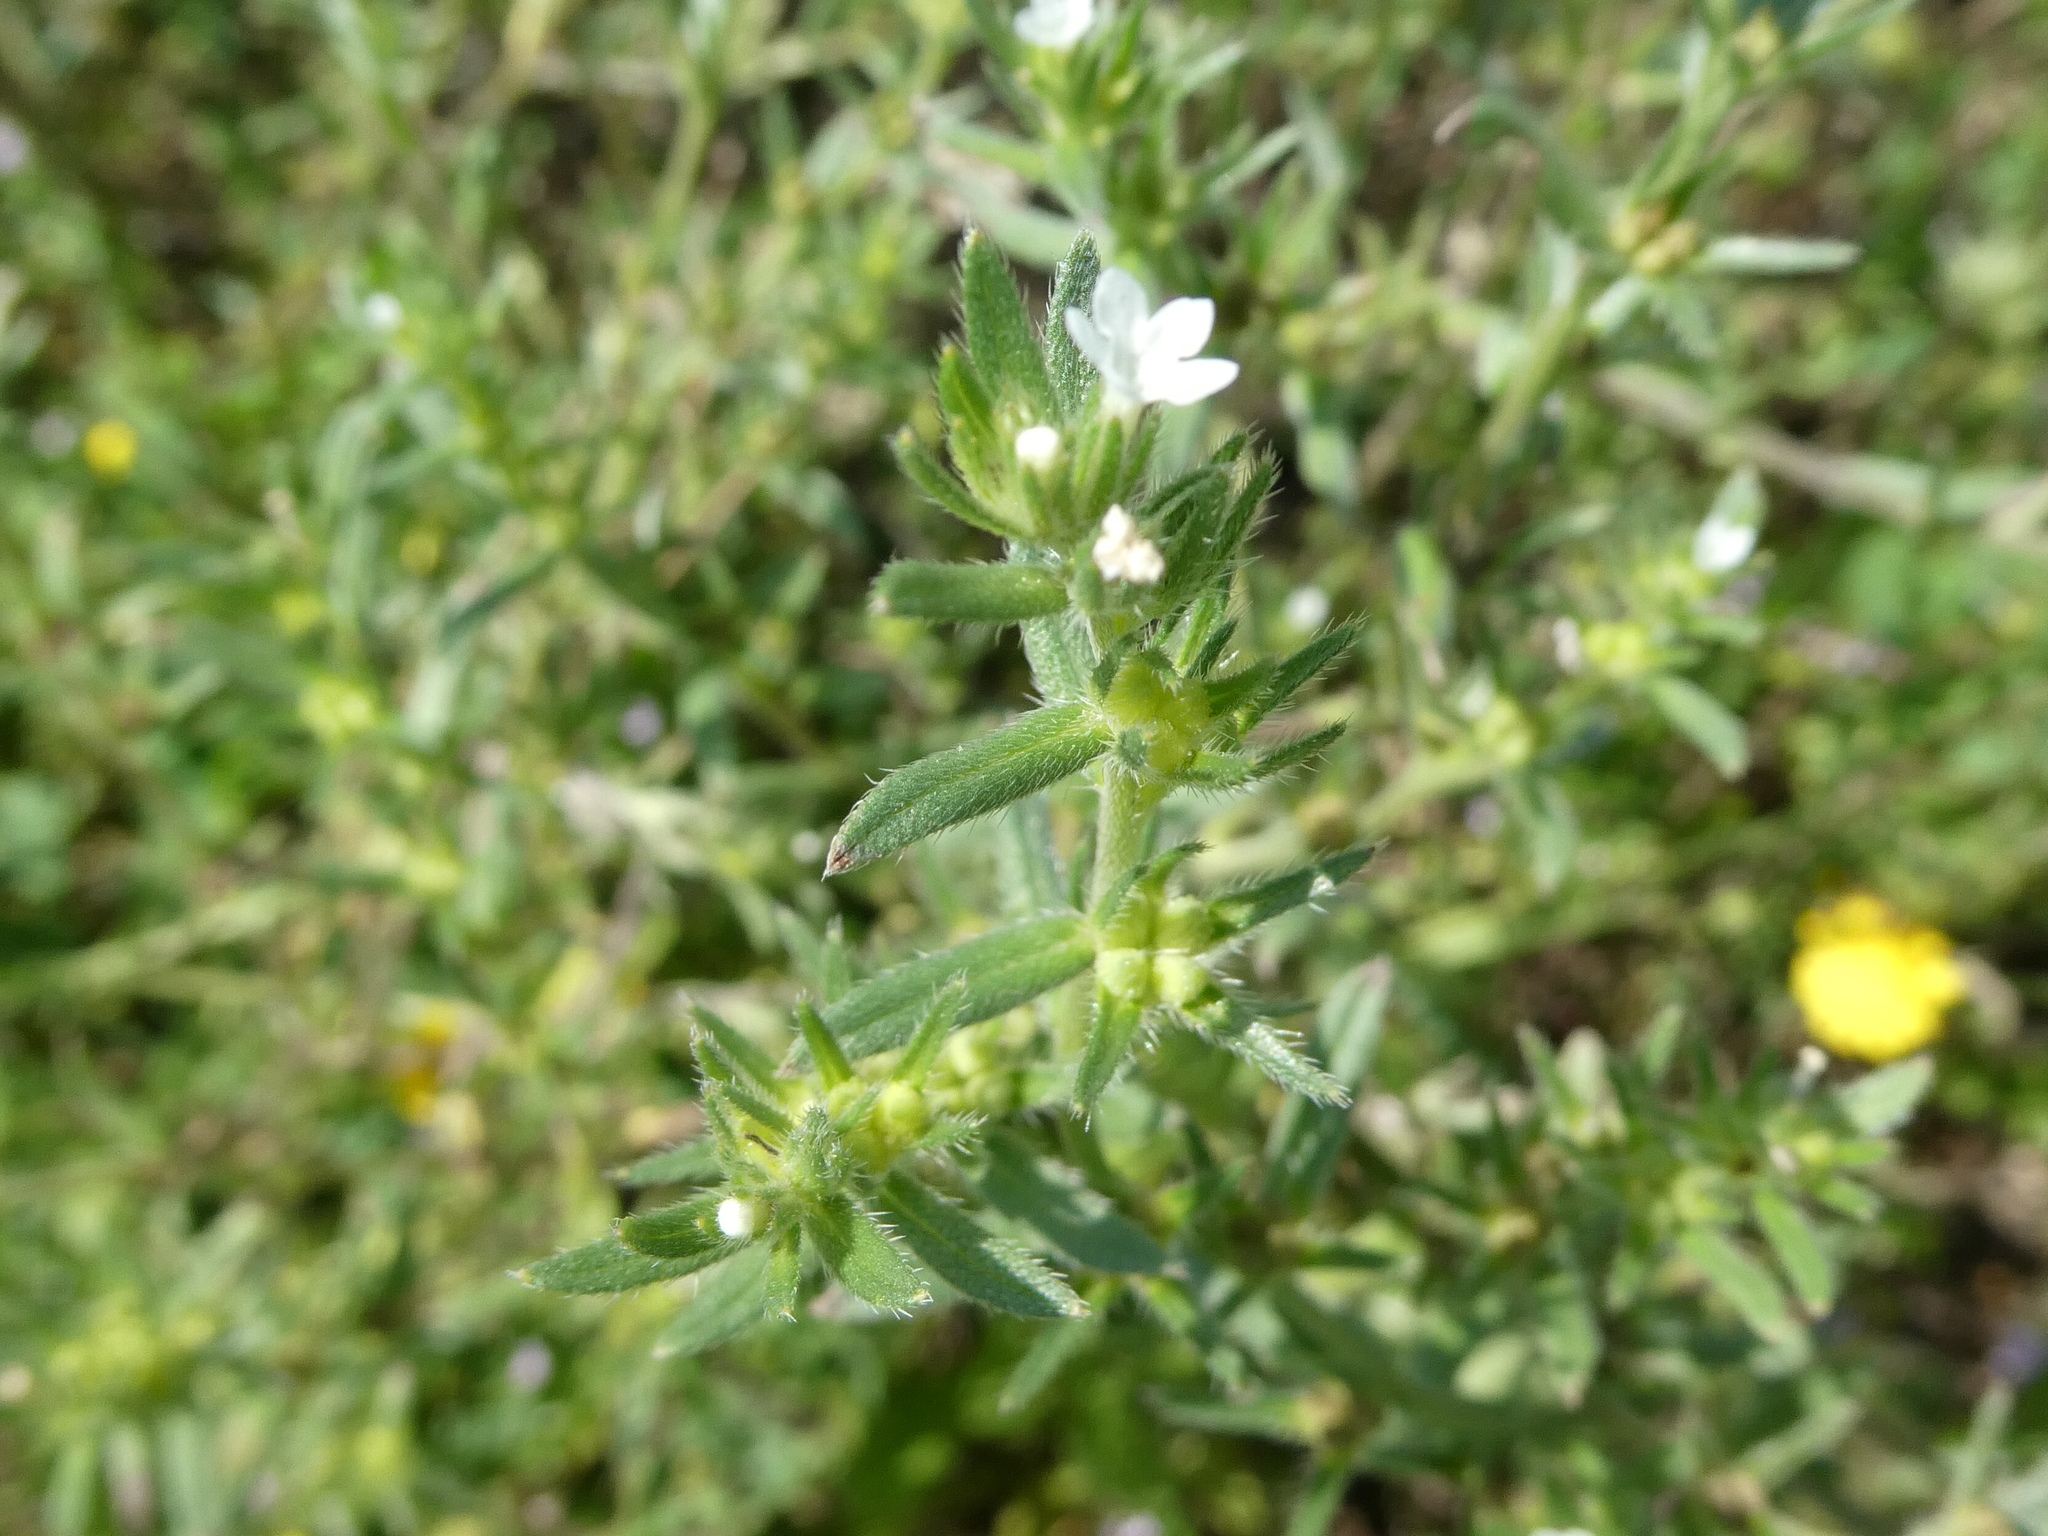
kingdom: Plantae
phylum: Tracheophyta
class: Magnoliopsida
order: Boraginales
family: Boraginaceae
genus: Buglossoides
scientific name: Buglossoides arvensis
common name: Corn gromwell
